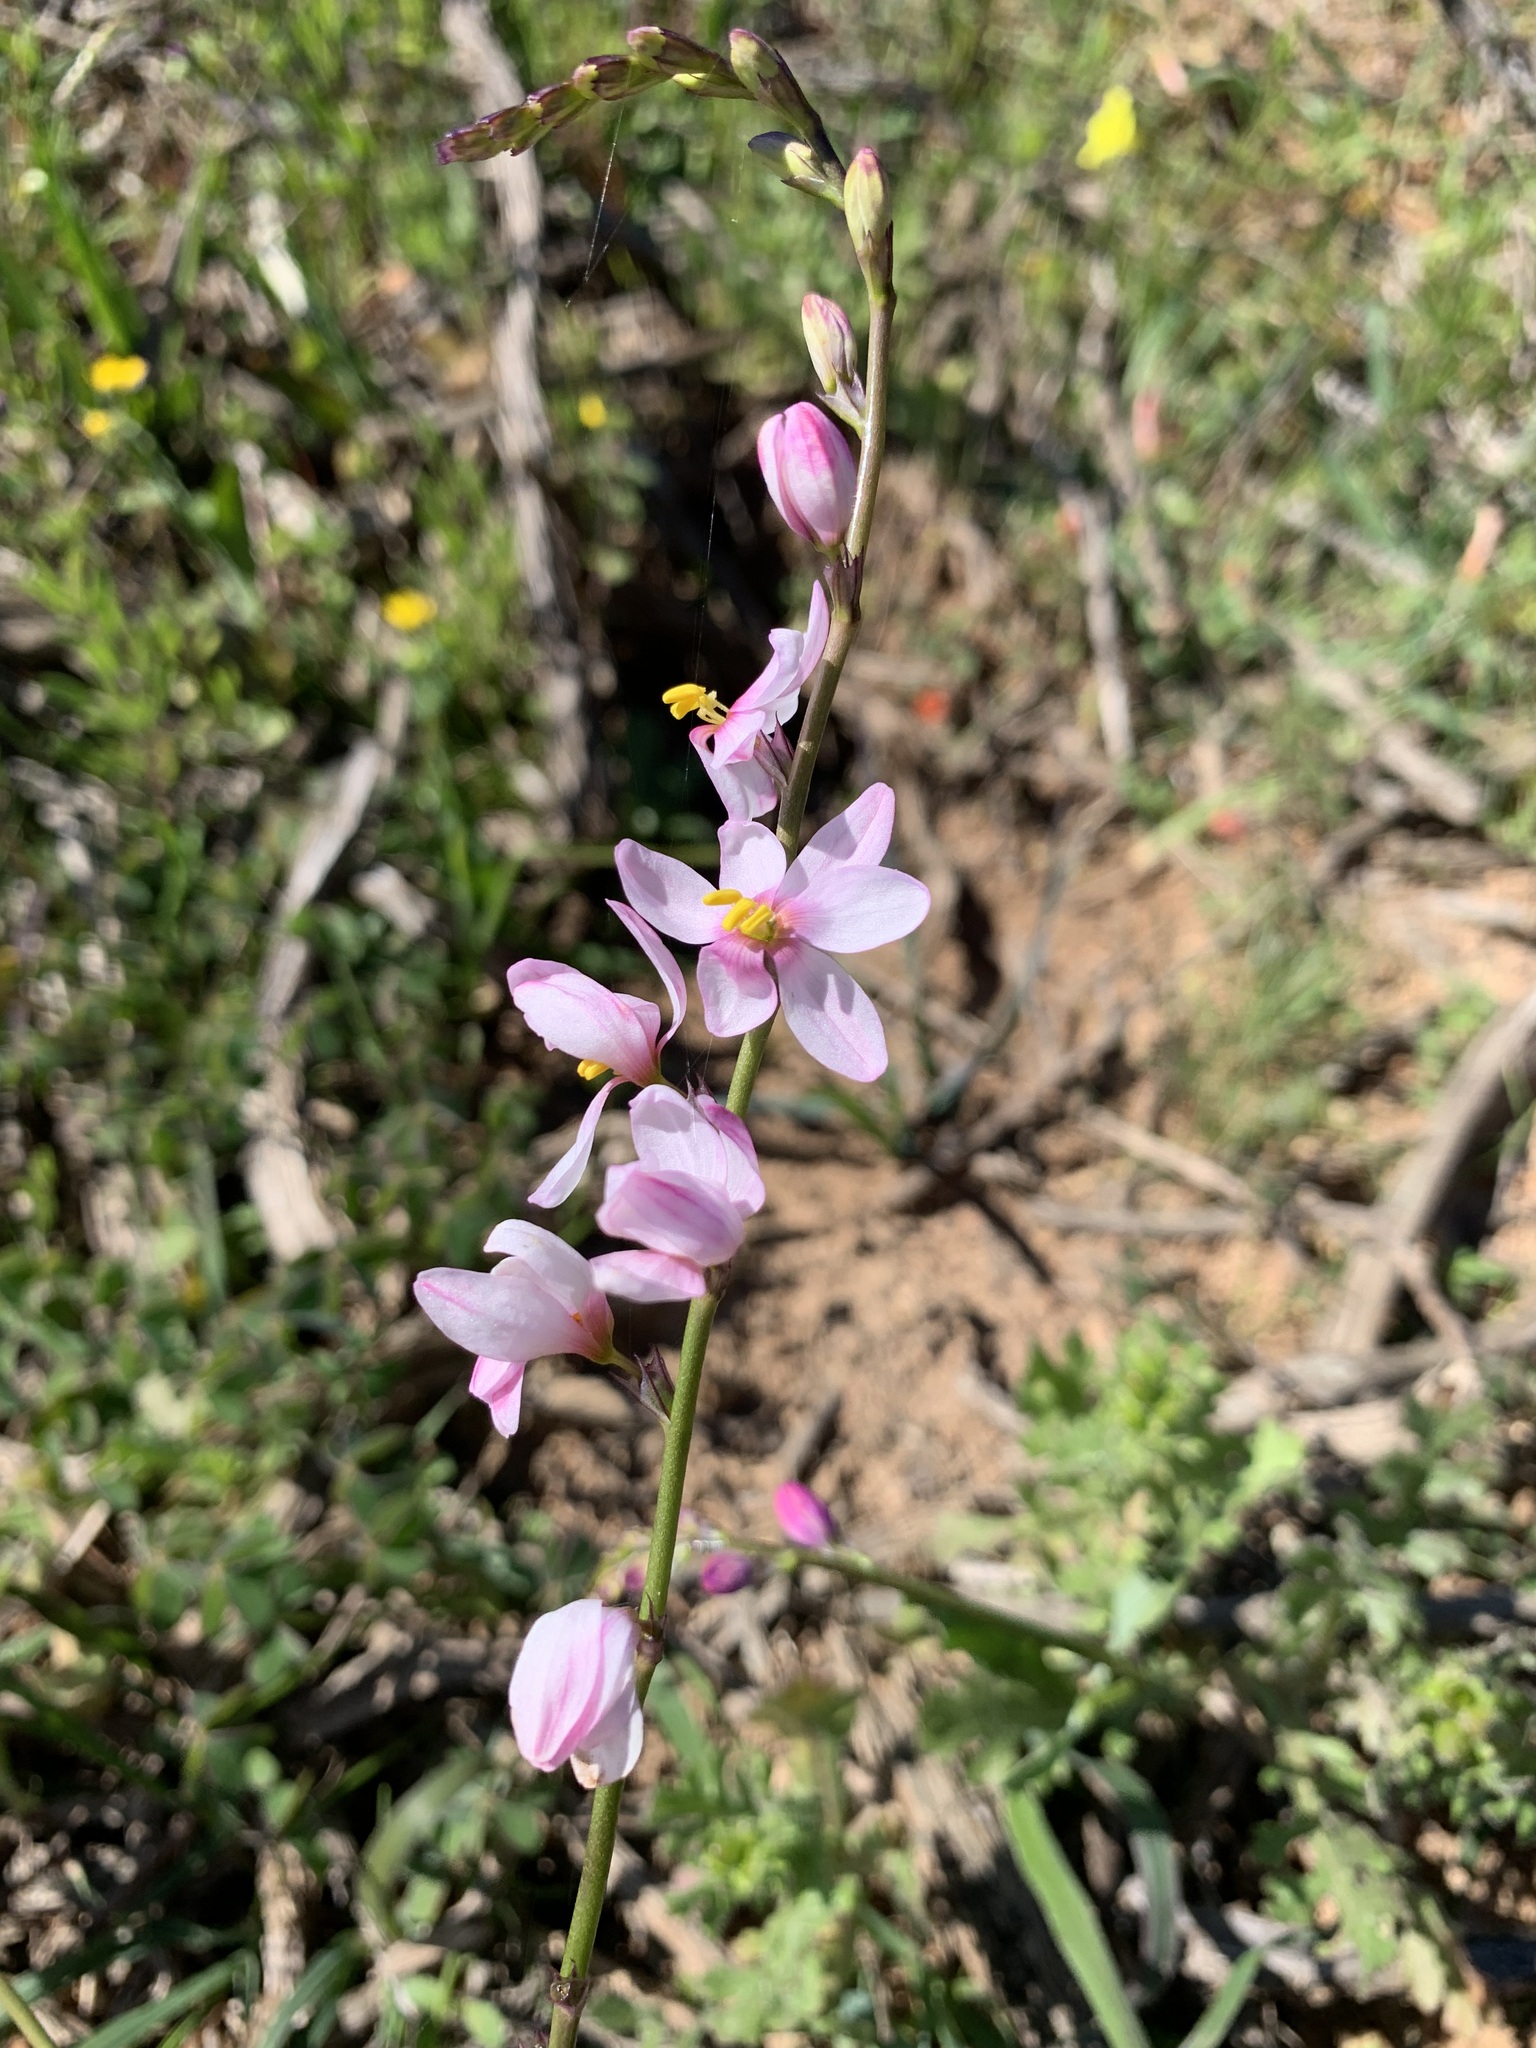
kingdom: Plantae
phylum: Tracheophyta
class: Liliopsida
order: Asparagales
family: Iridaceae
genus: Ixia
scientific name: Ixia scillaris
